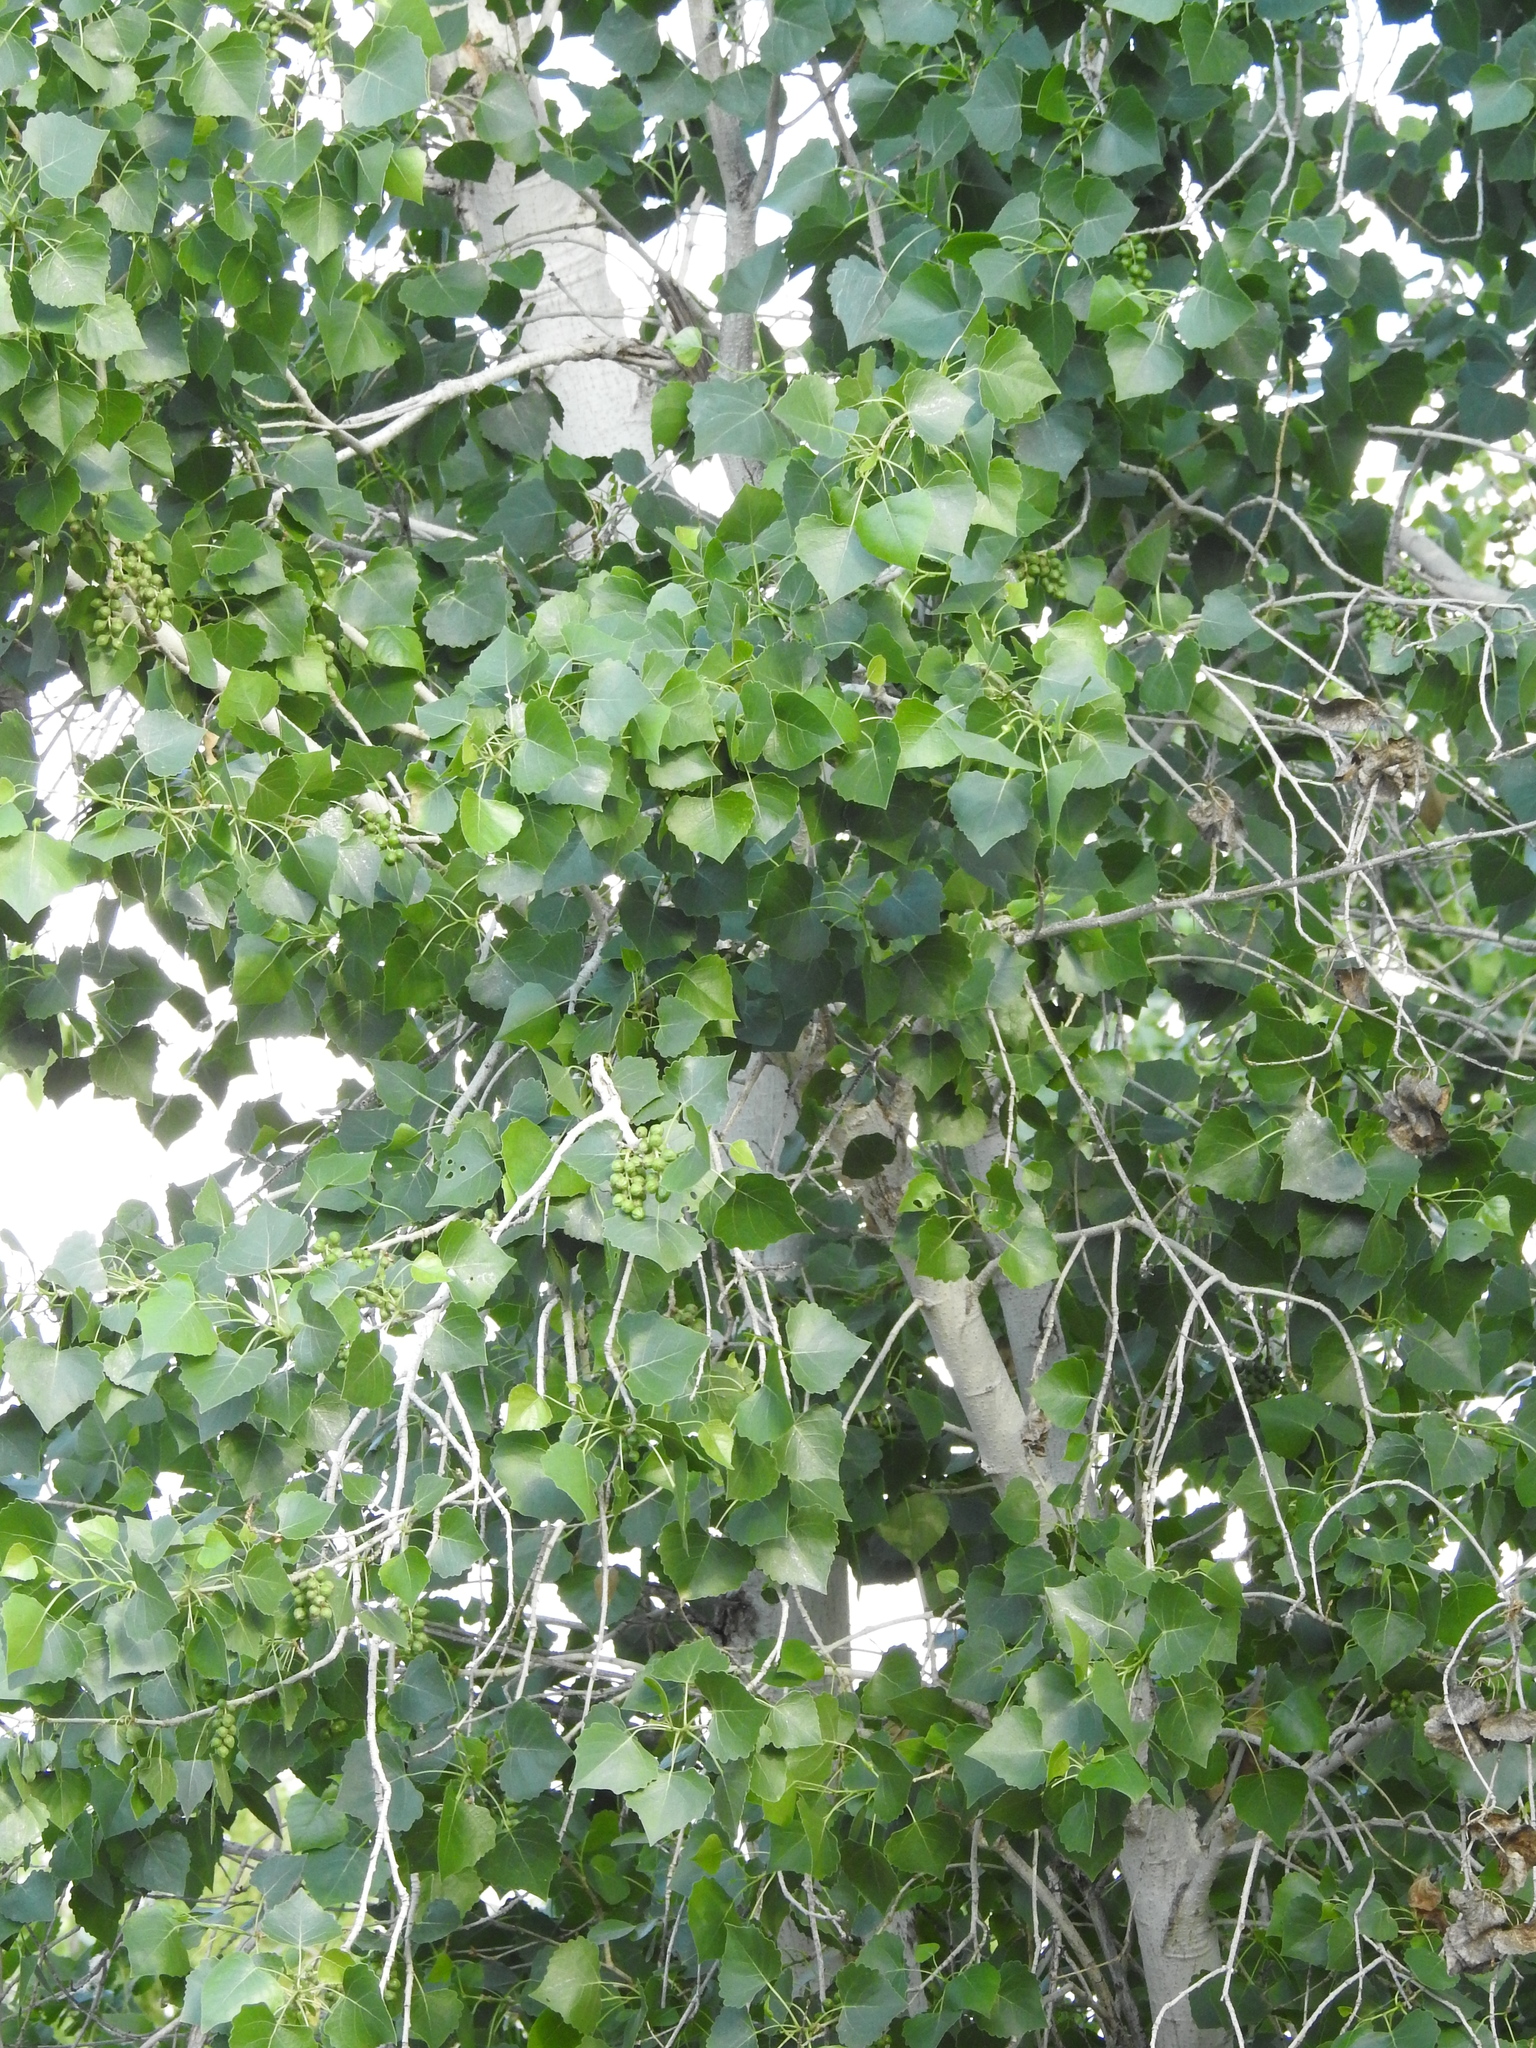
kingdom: Plantae
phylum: Tracheophyta
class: Magnoliopsida
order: Malpighiales
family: Salicaceae
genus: Populus
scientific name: Populus fremontii
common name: Fremont's cottonwood
